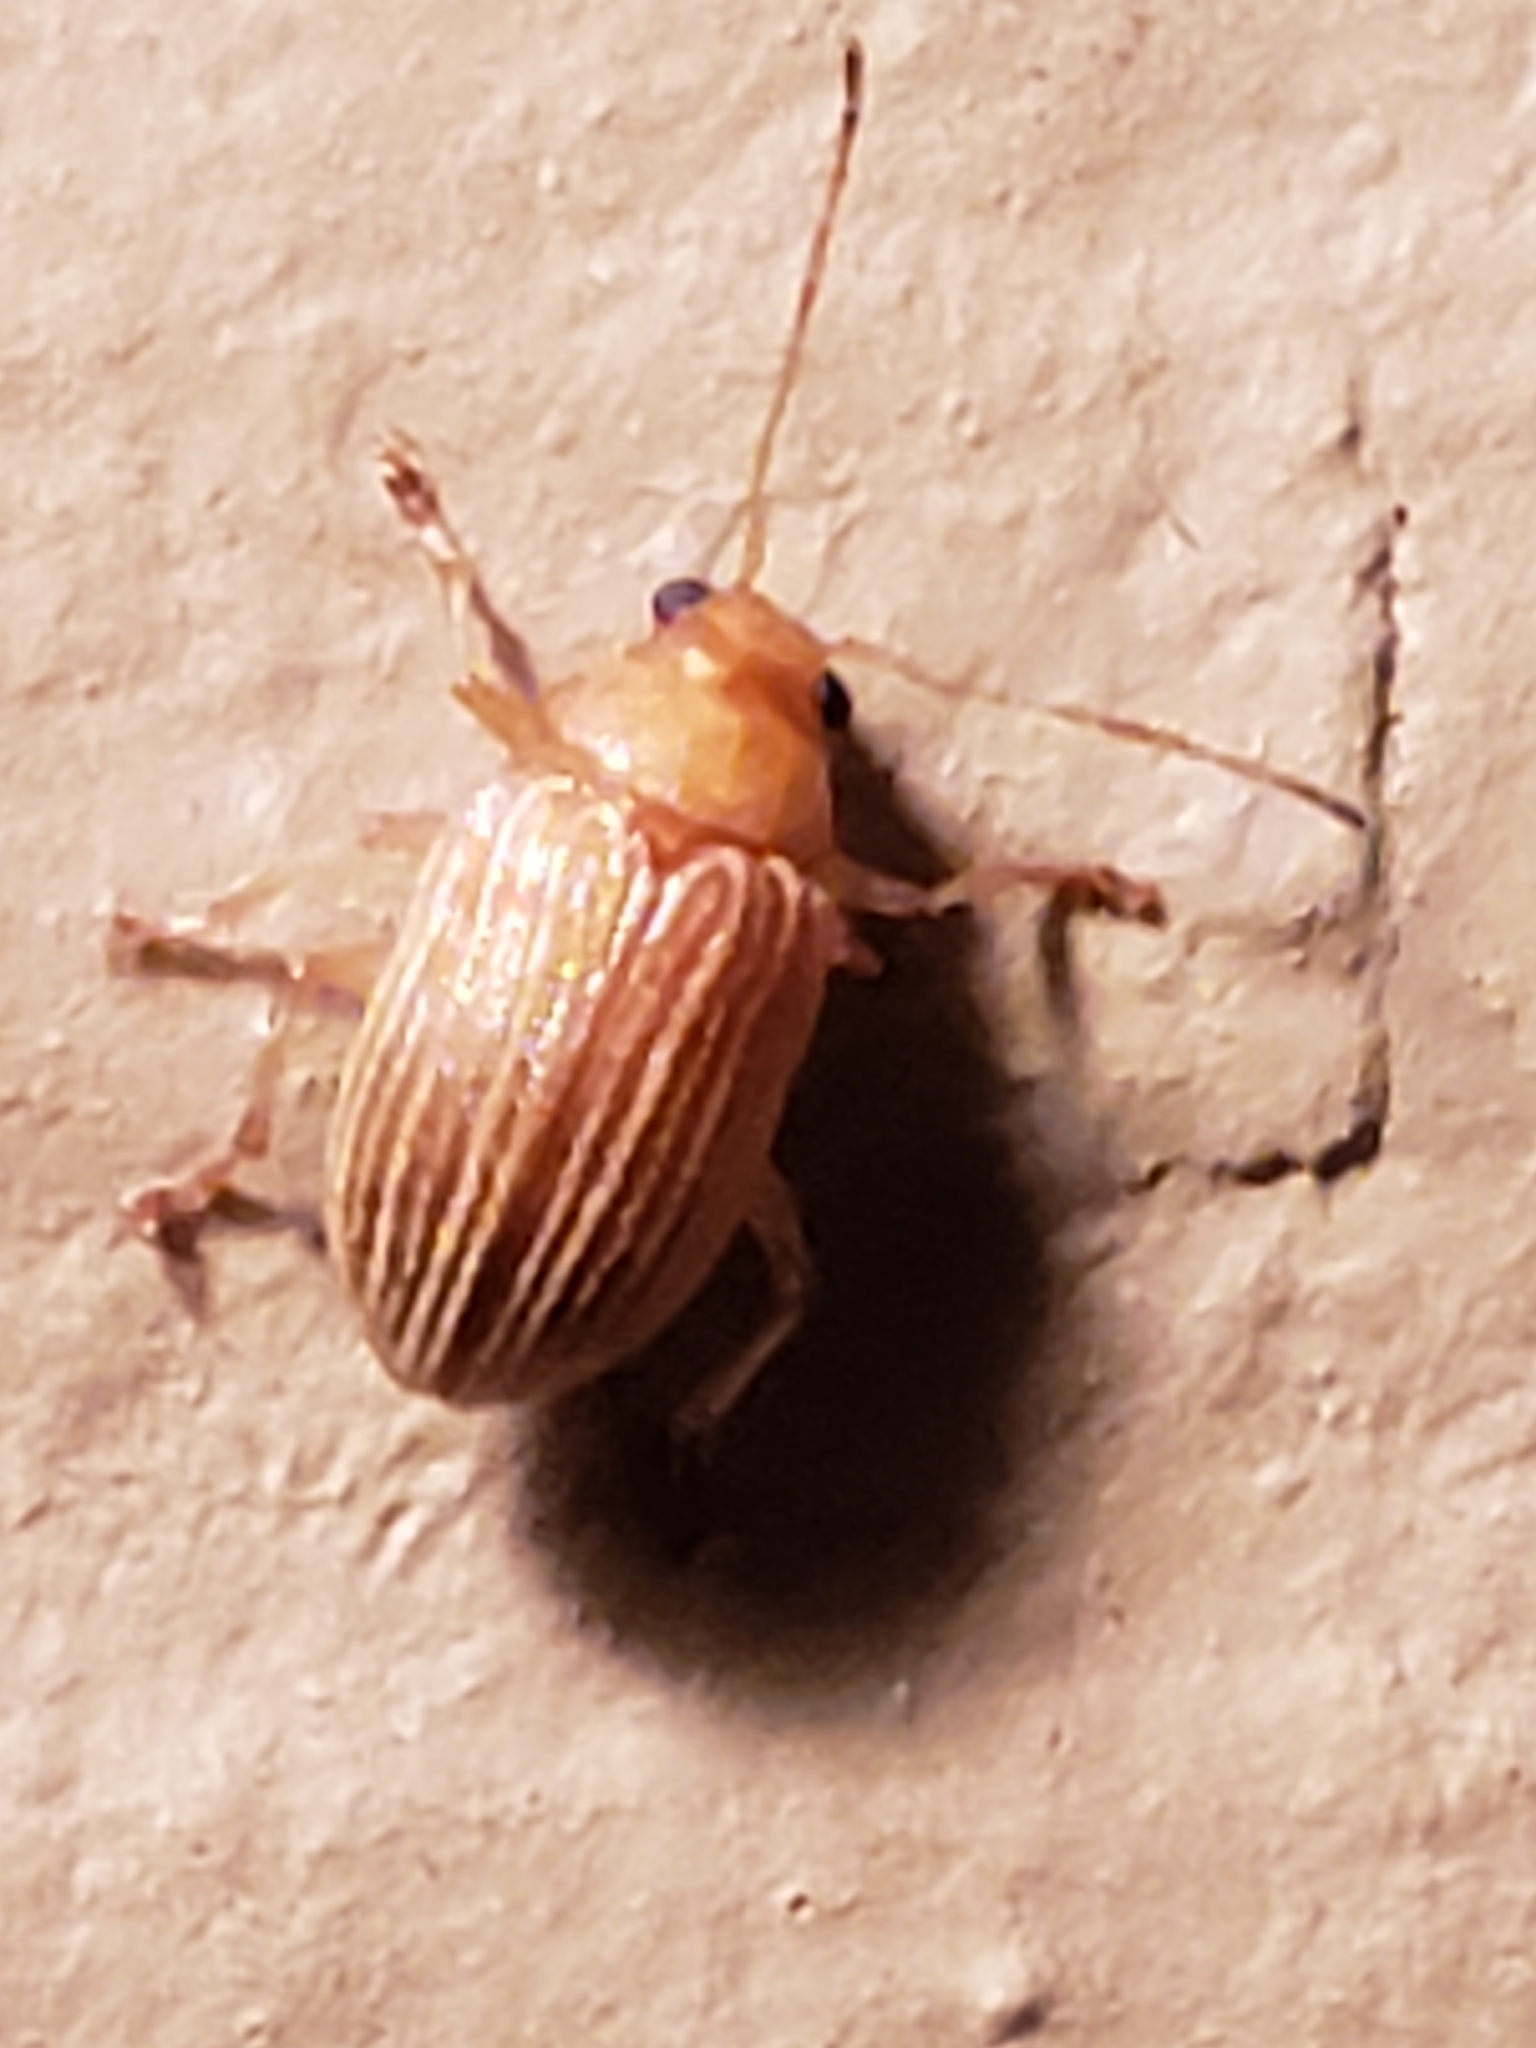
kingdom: Animalia
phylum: Arthropoda
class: Insecta
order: Coleoptera
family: Chrysomelidae
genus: Colaspis
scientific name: Colaspis brunnea
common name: Grape colaspis
